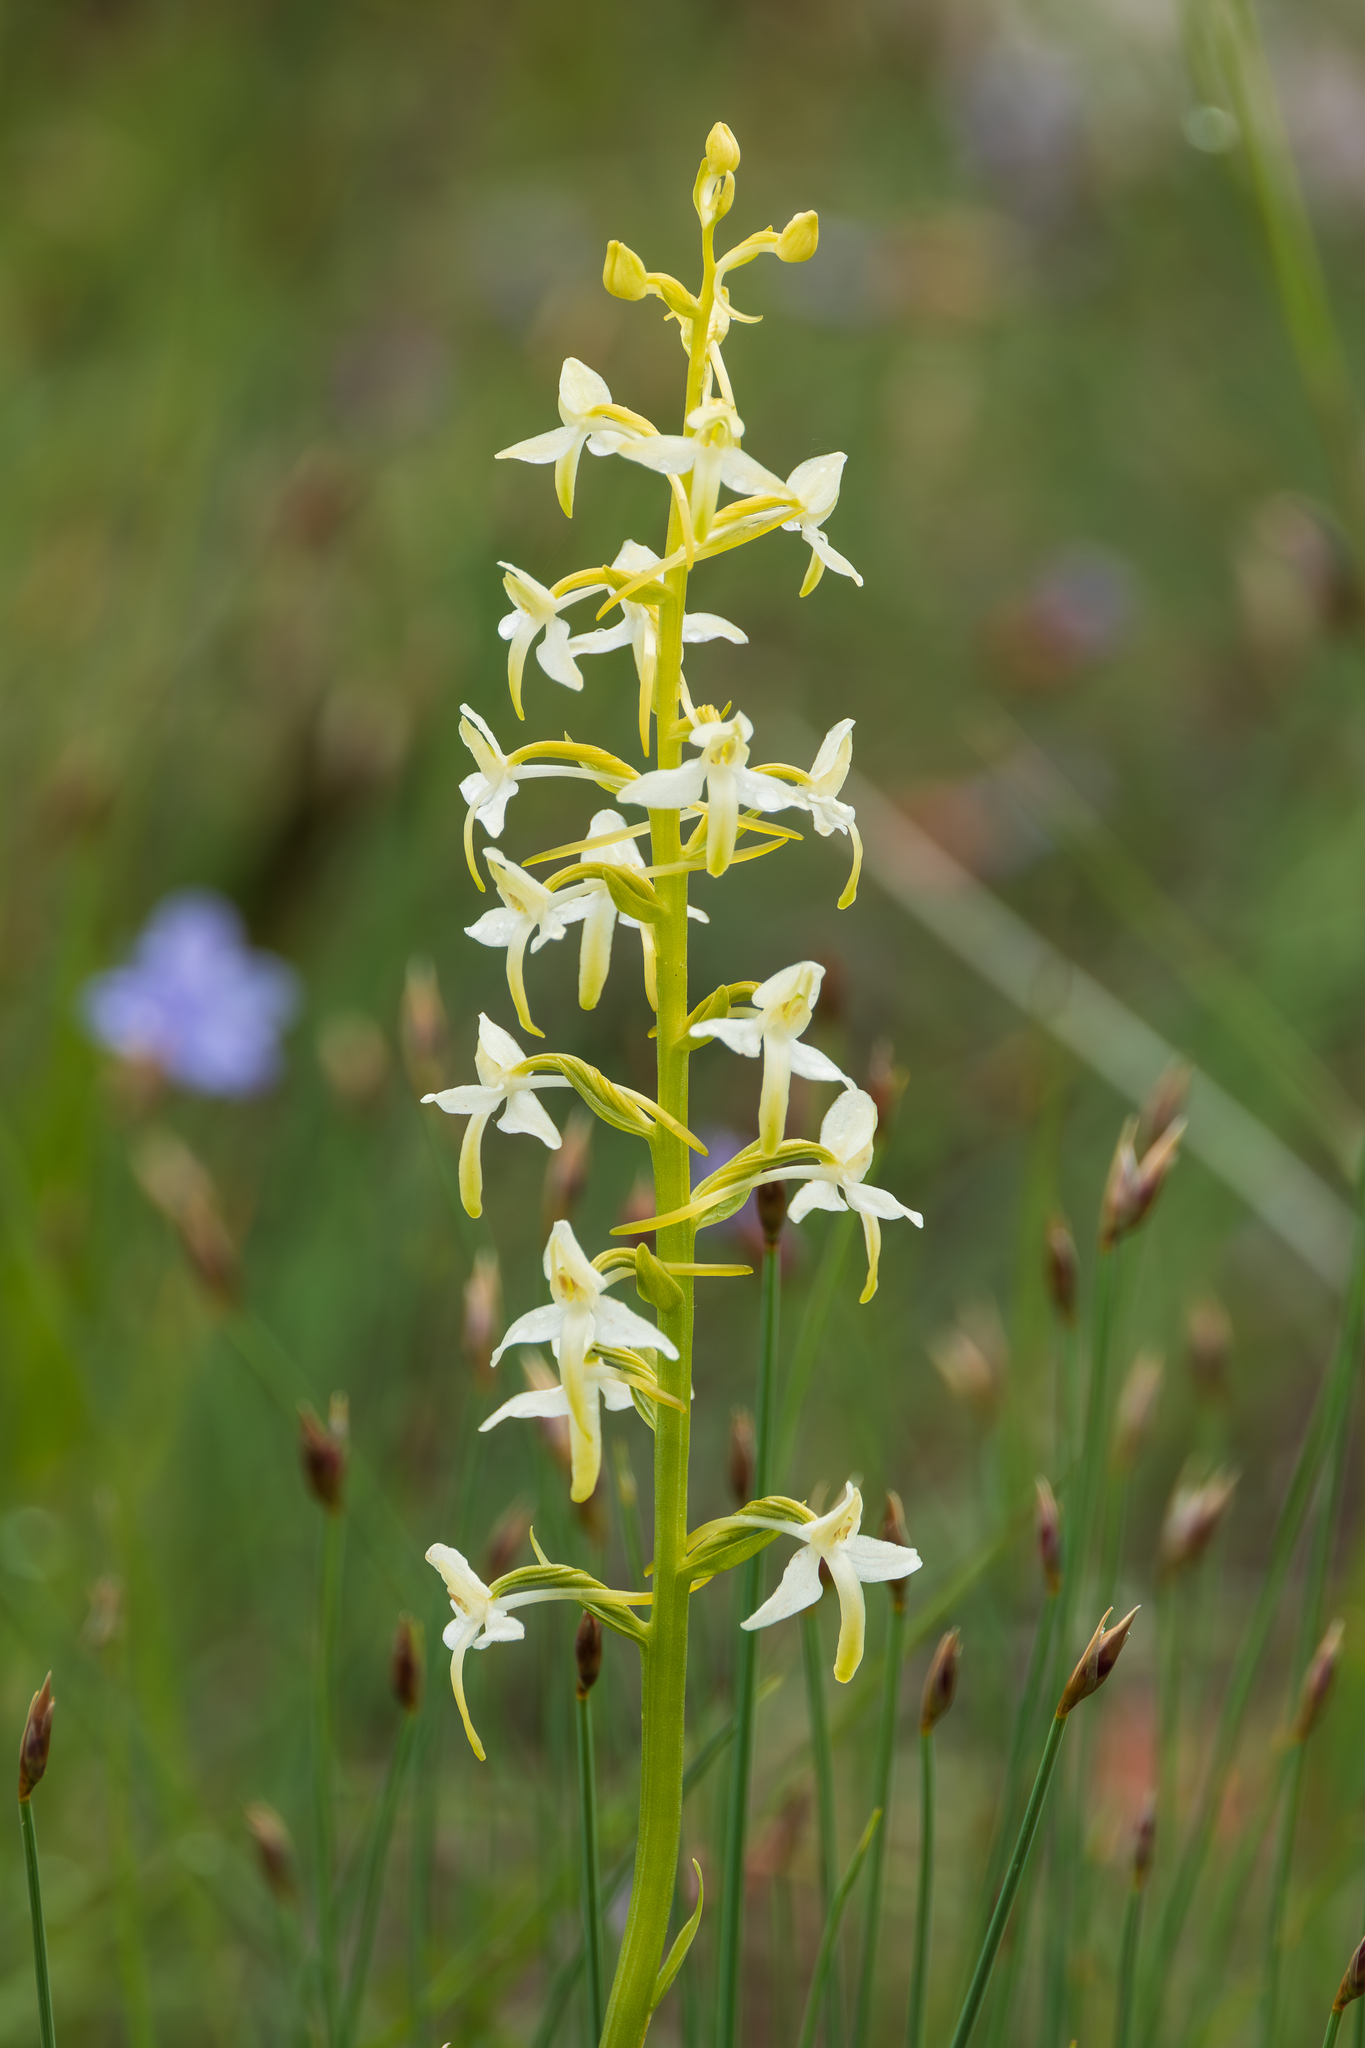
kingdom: Plantae
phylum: Tracheophyta
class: Liliopsida
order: Asparagales
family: Orchidaceae
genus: Platanthera
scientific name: Platanthera bifolia
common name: Lesser butterfly-orchid
